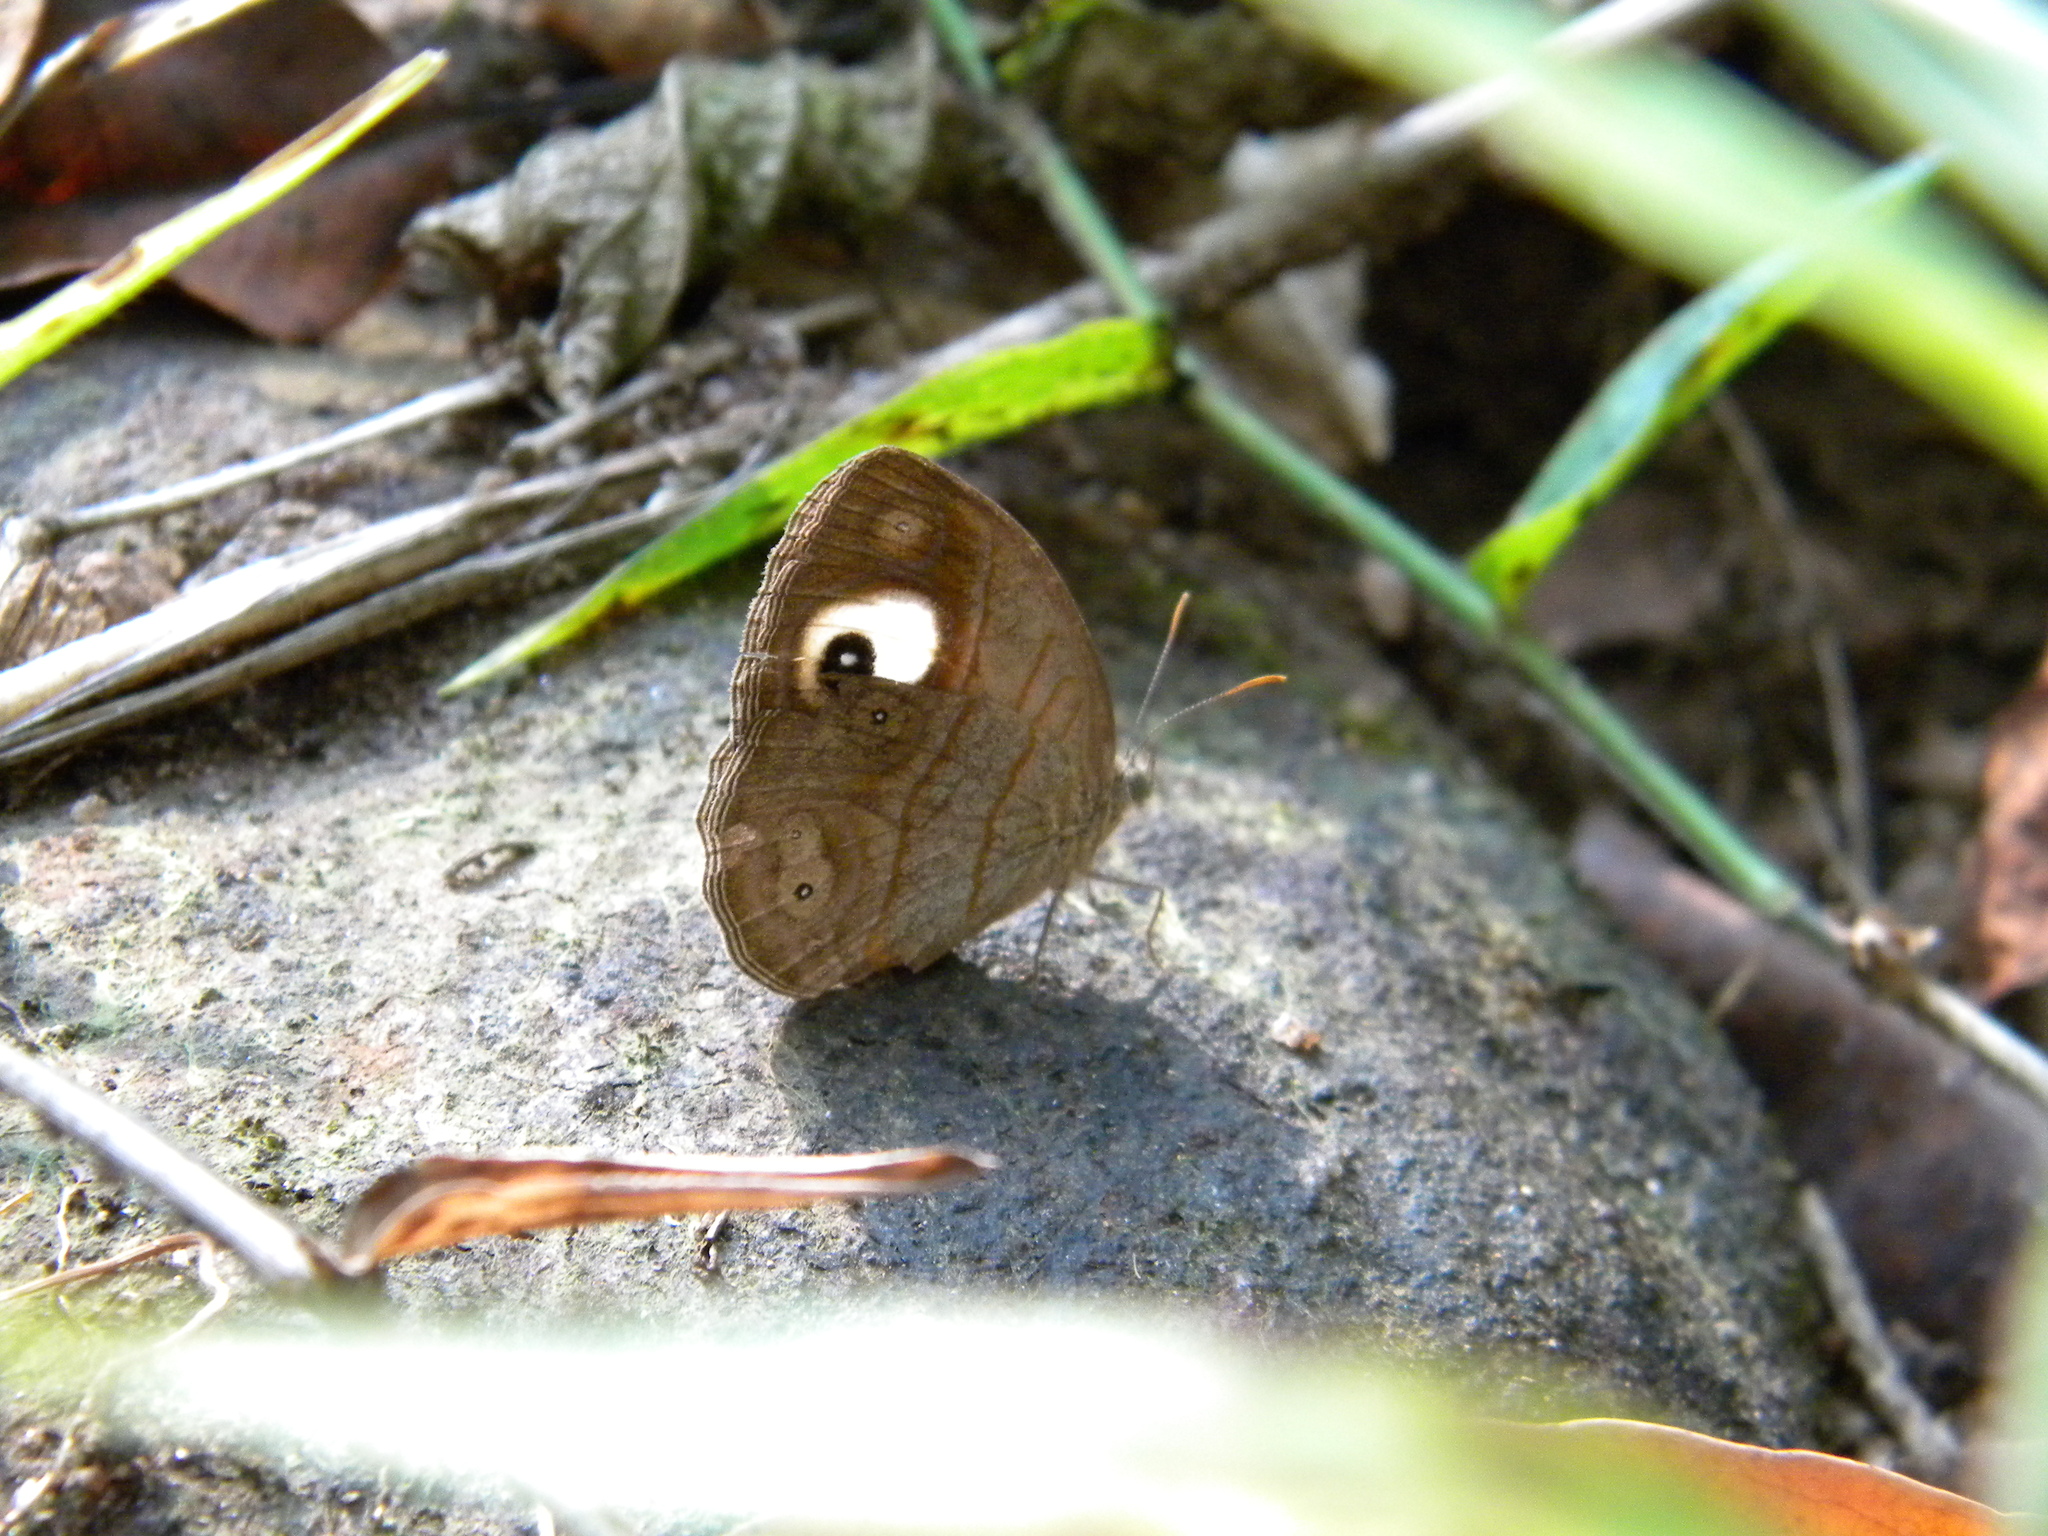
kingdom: Animalia
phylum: Arthropoda
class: Insecta
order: Lepidoptera
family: Nymphalidae
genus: Mycalesis
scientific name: Mycalesis patnia
